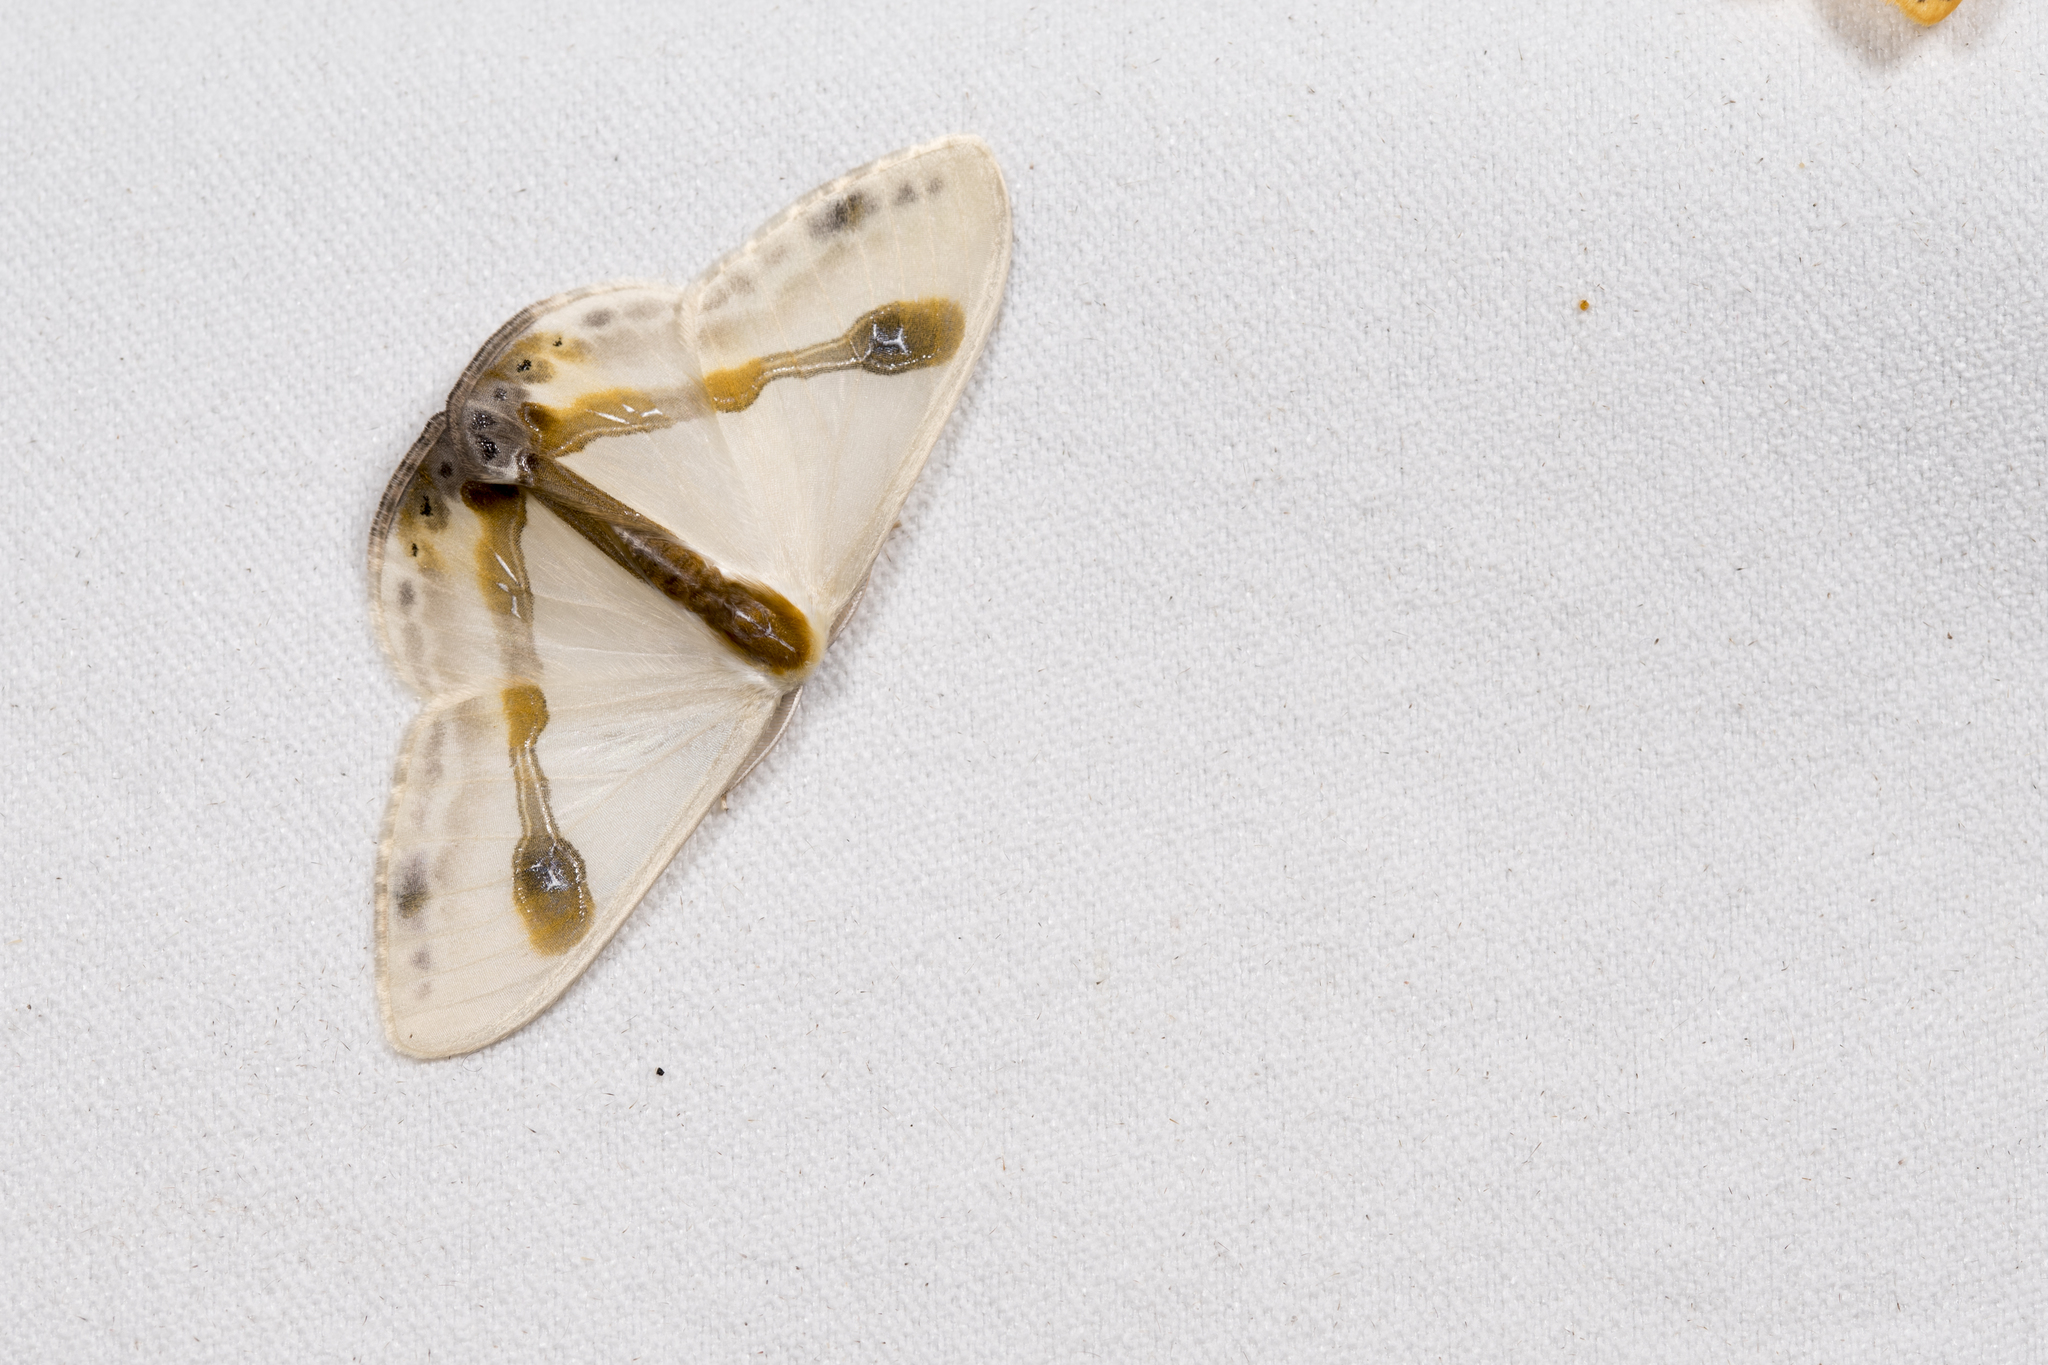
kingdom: Animalia
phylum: Arthropoda
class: Insecta
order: Lepidoptera
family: Drepanidae
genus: Macrocilix
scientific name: Macrocilix mysticata
